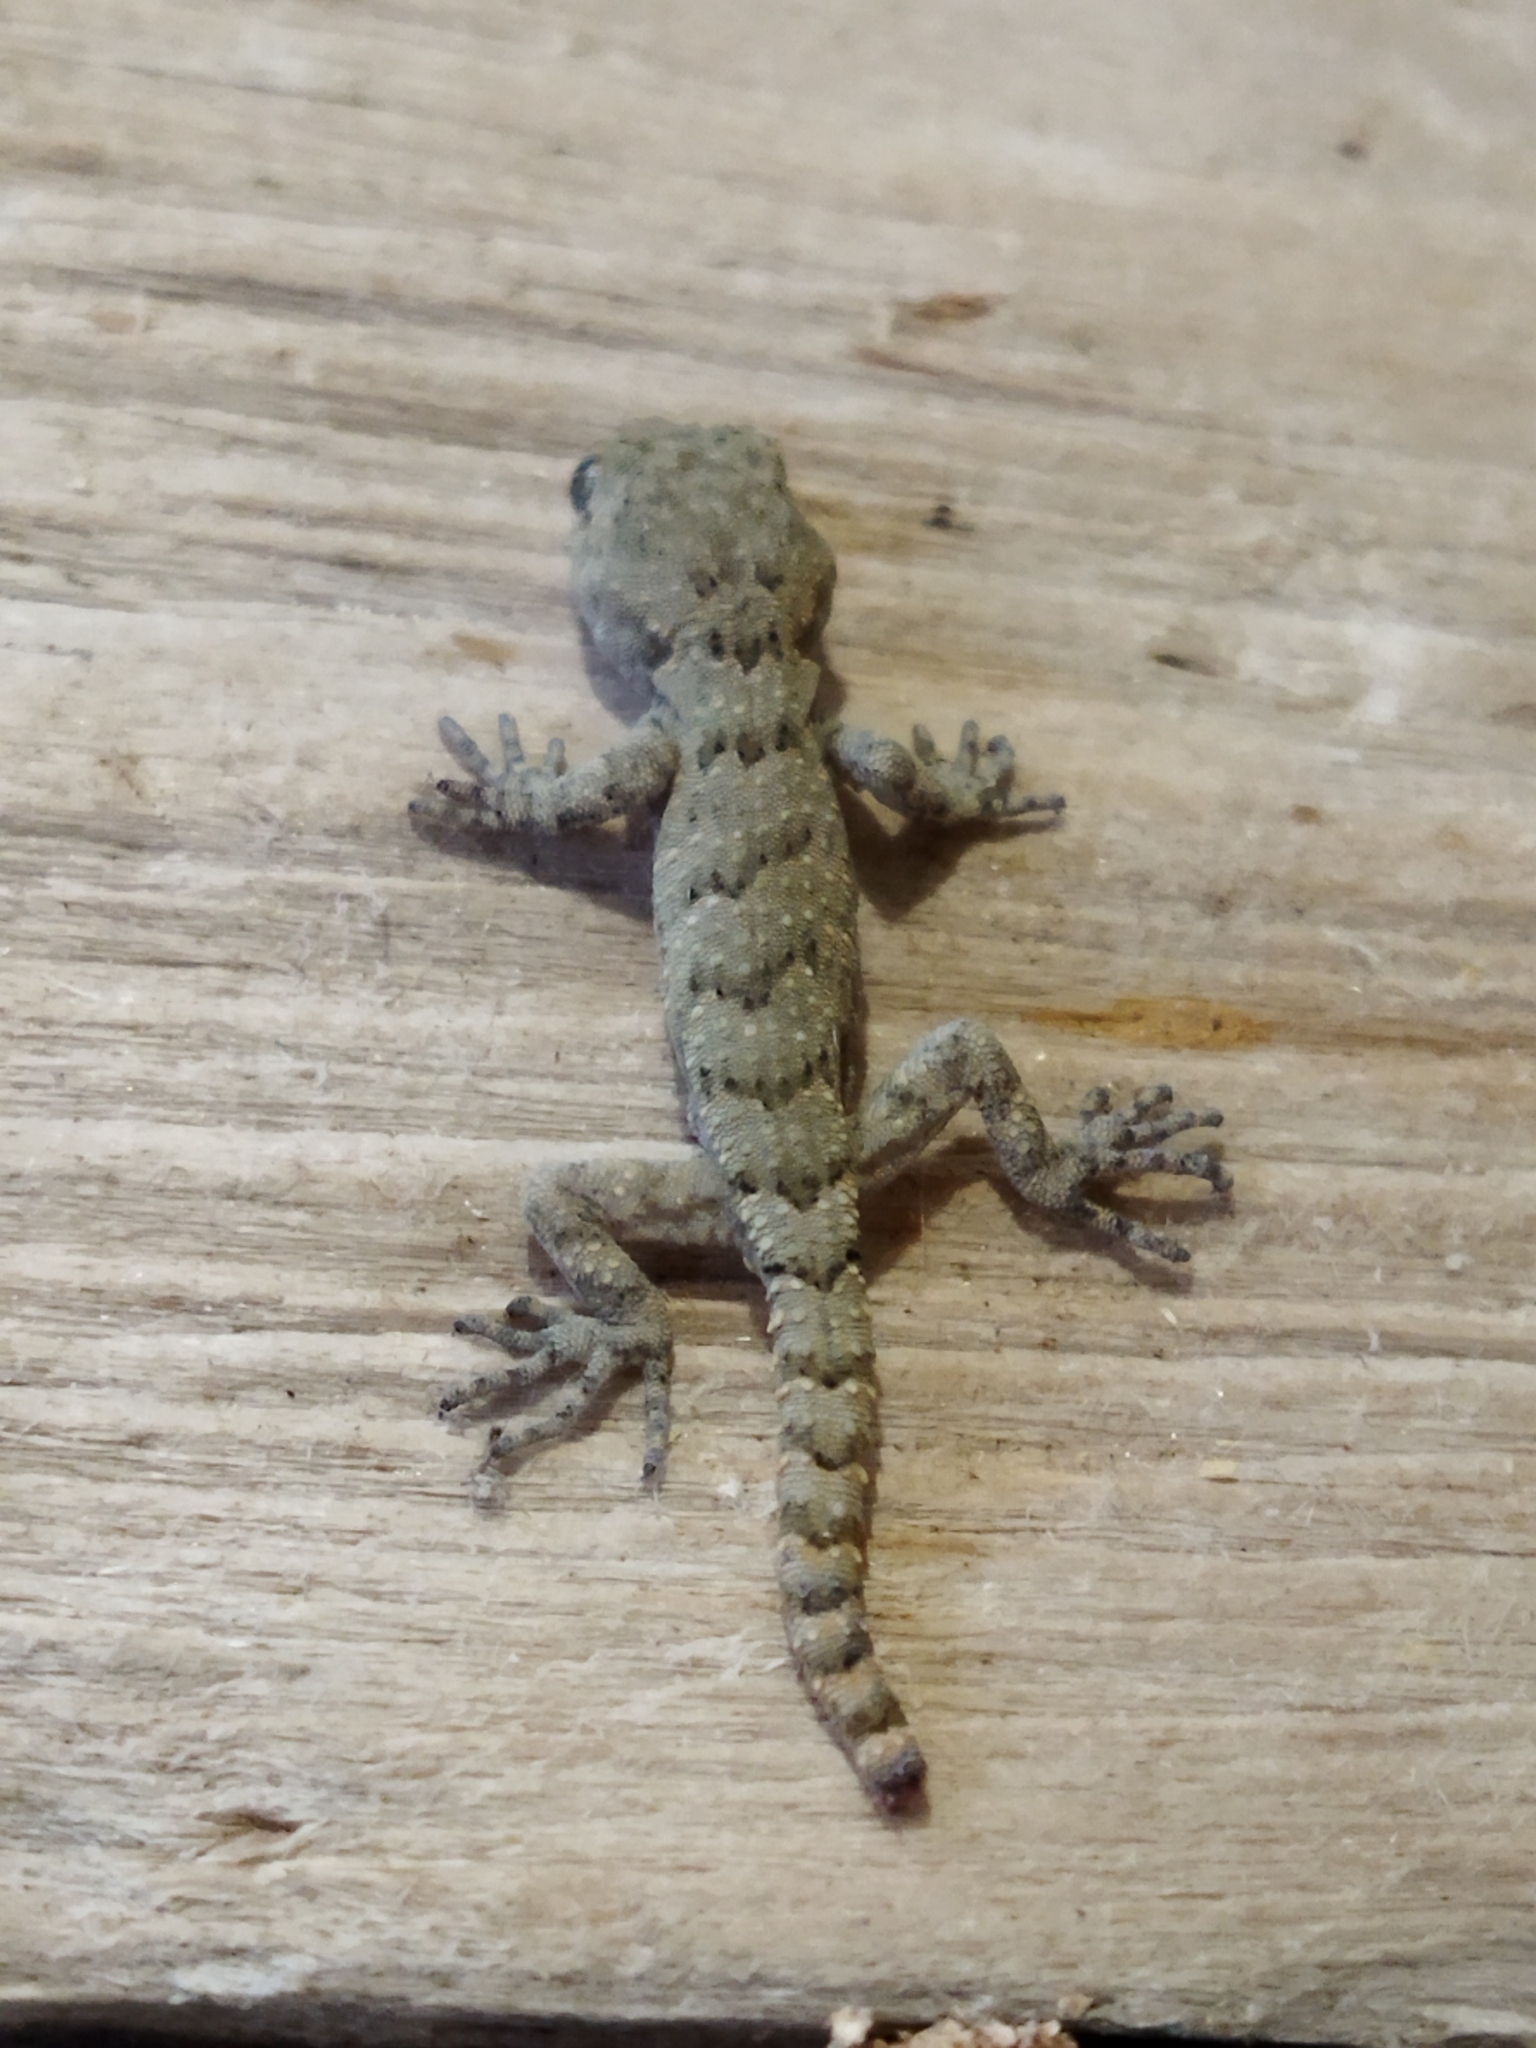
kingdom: Animalia
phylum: Chordata
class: Squamata
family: Gekkonidae
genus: Mediodactylus
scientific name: Mediodactylus kotschyi
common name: Kotschy's gecko
